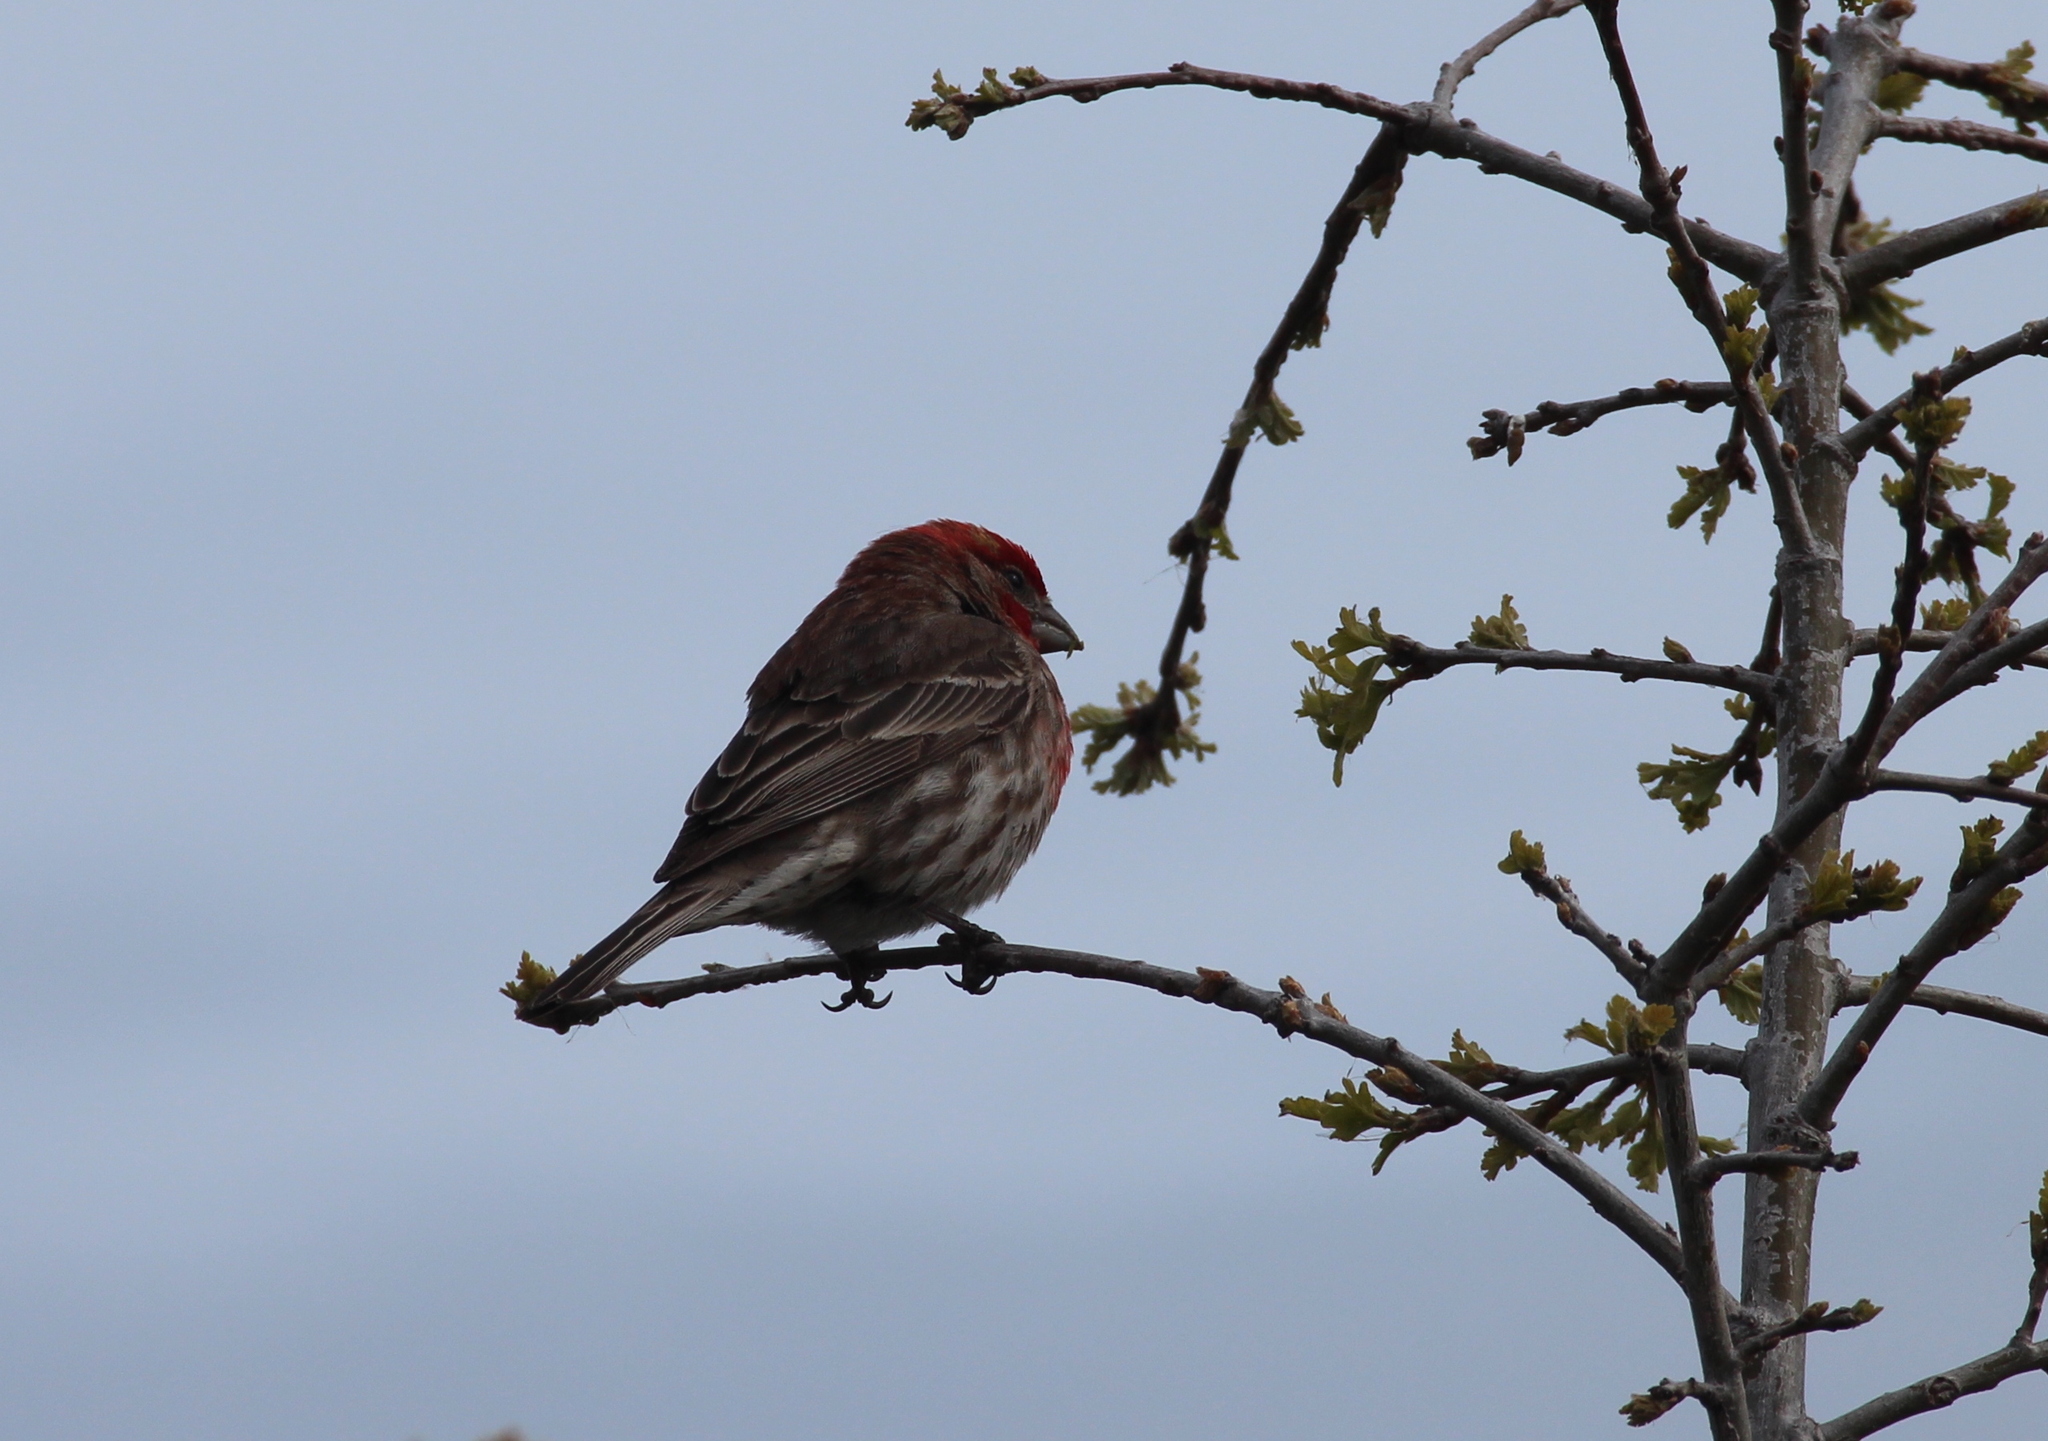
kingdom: Animalia
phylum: Chordata
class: Aves
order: Passeriformes
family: Fringillidae
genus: Haemorhous
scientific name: Haemorhous mexicanus
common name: House finch
